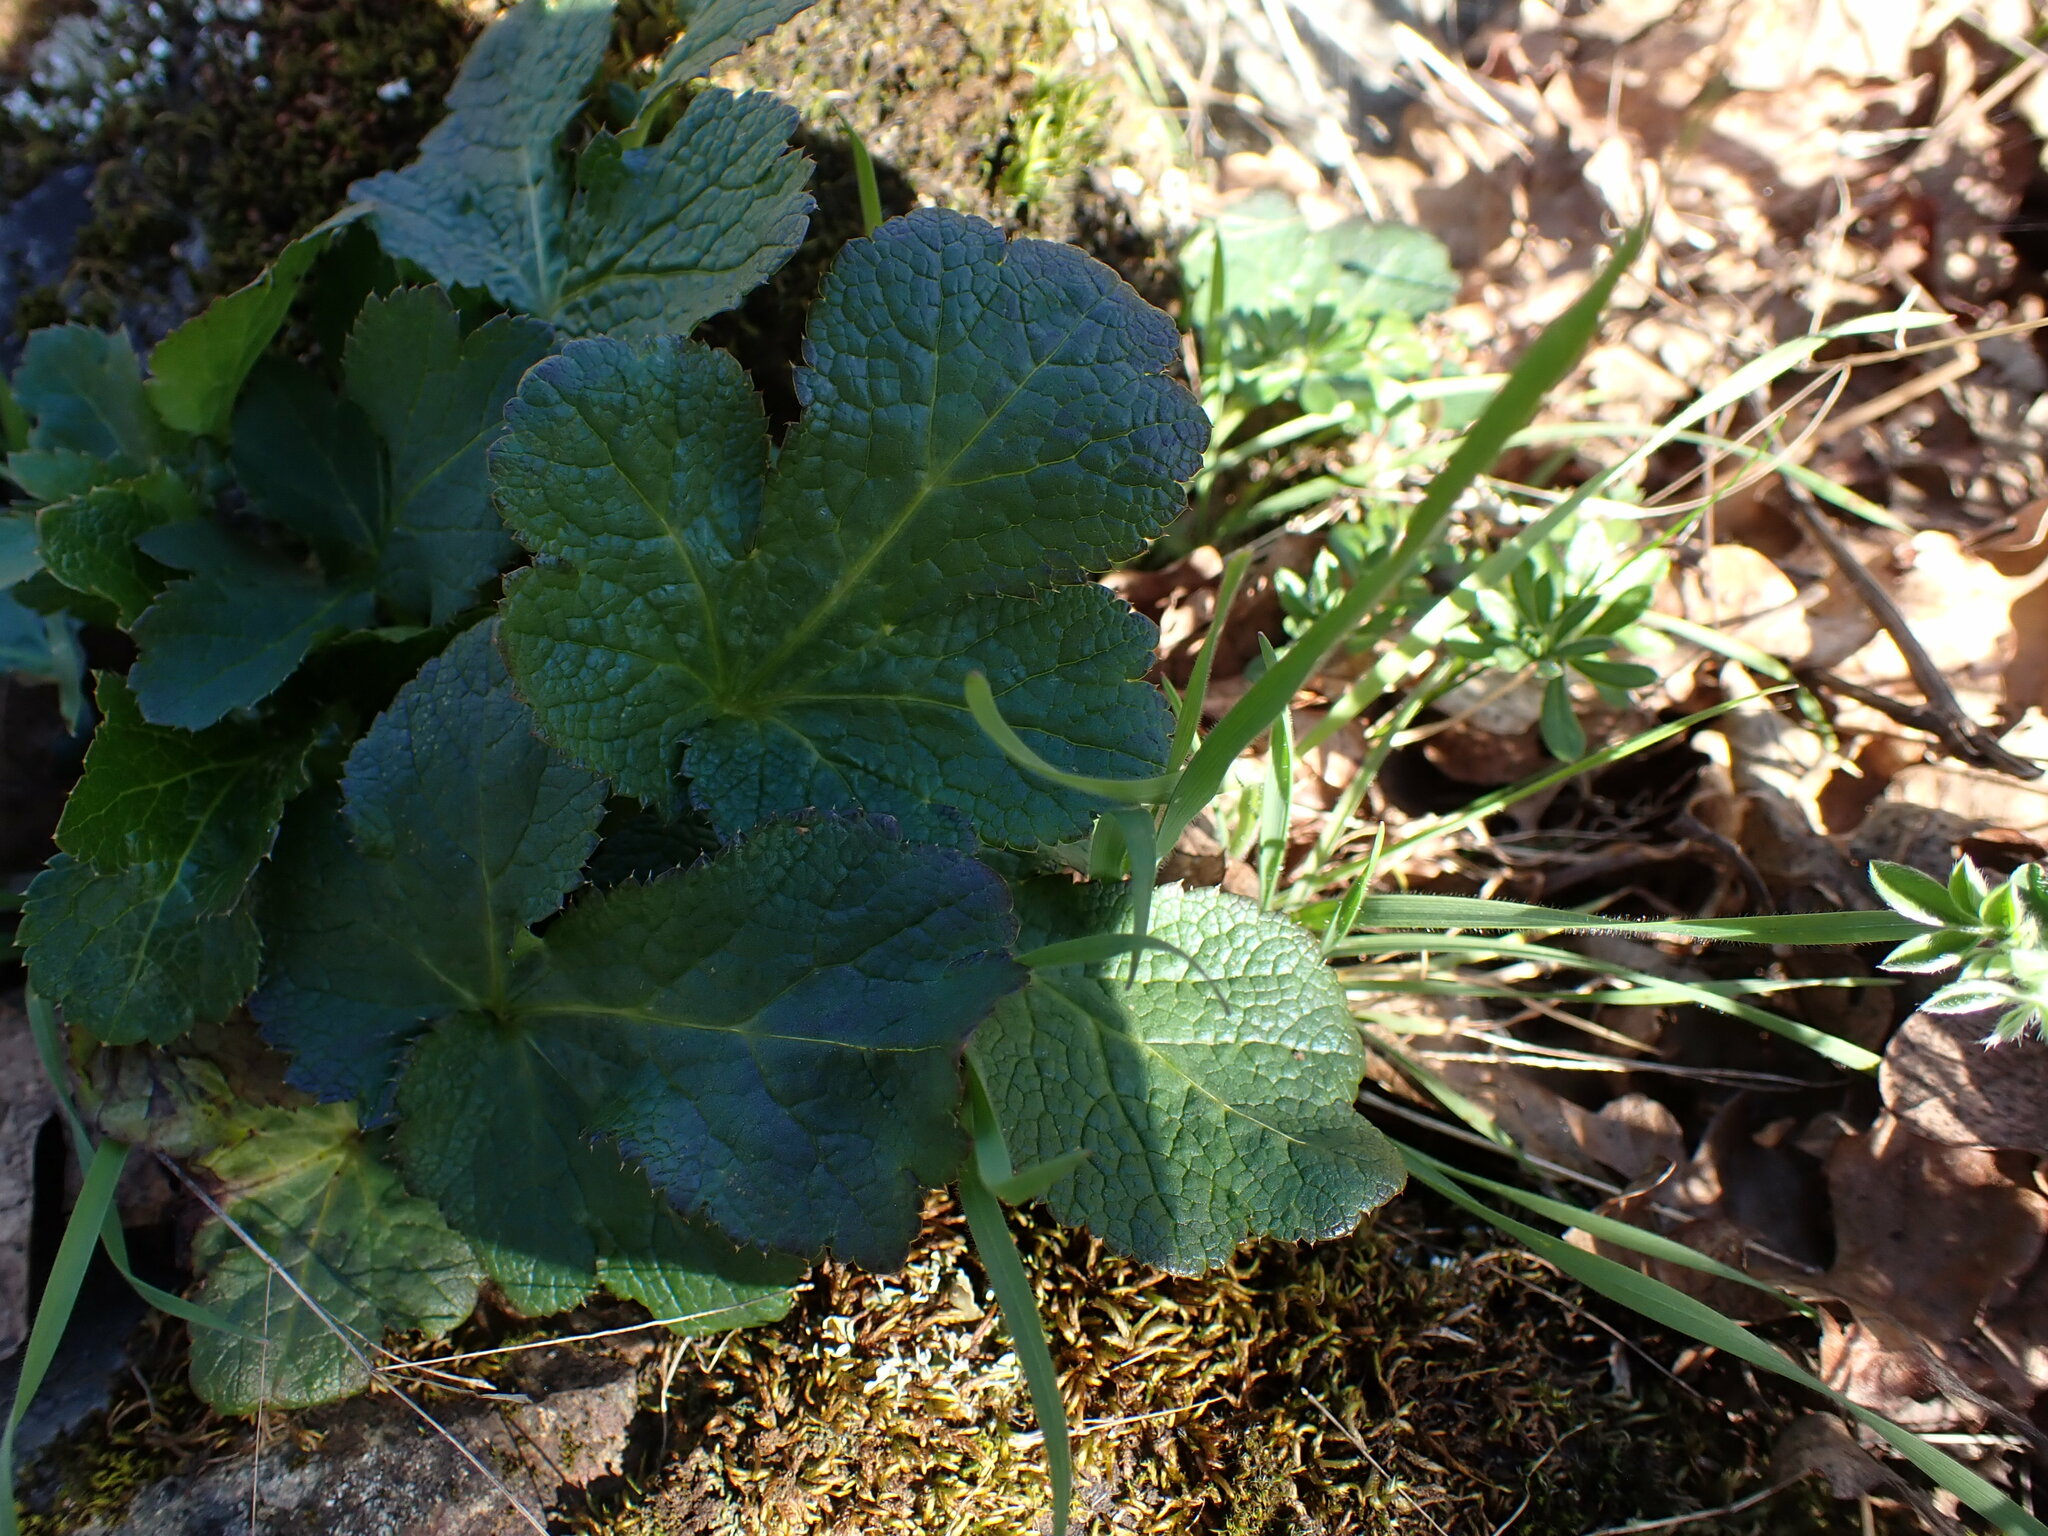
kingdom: Plantae
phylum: Tracheophyta
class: Magnoliopsida
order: Apiales
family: Apiaceae
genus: Sanicula
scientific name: Sanicula crassicaulis
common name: Western snakeroot
